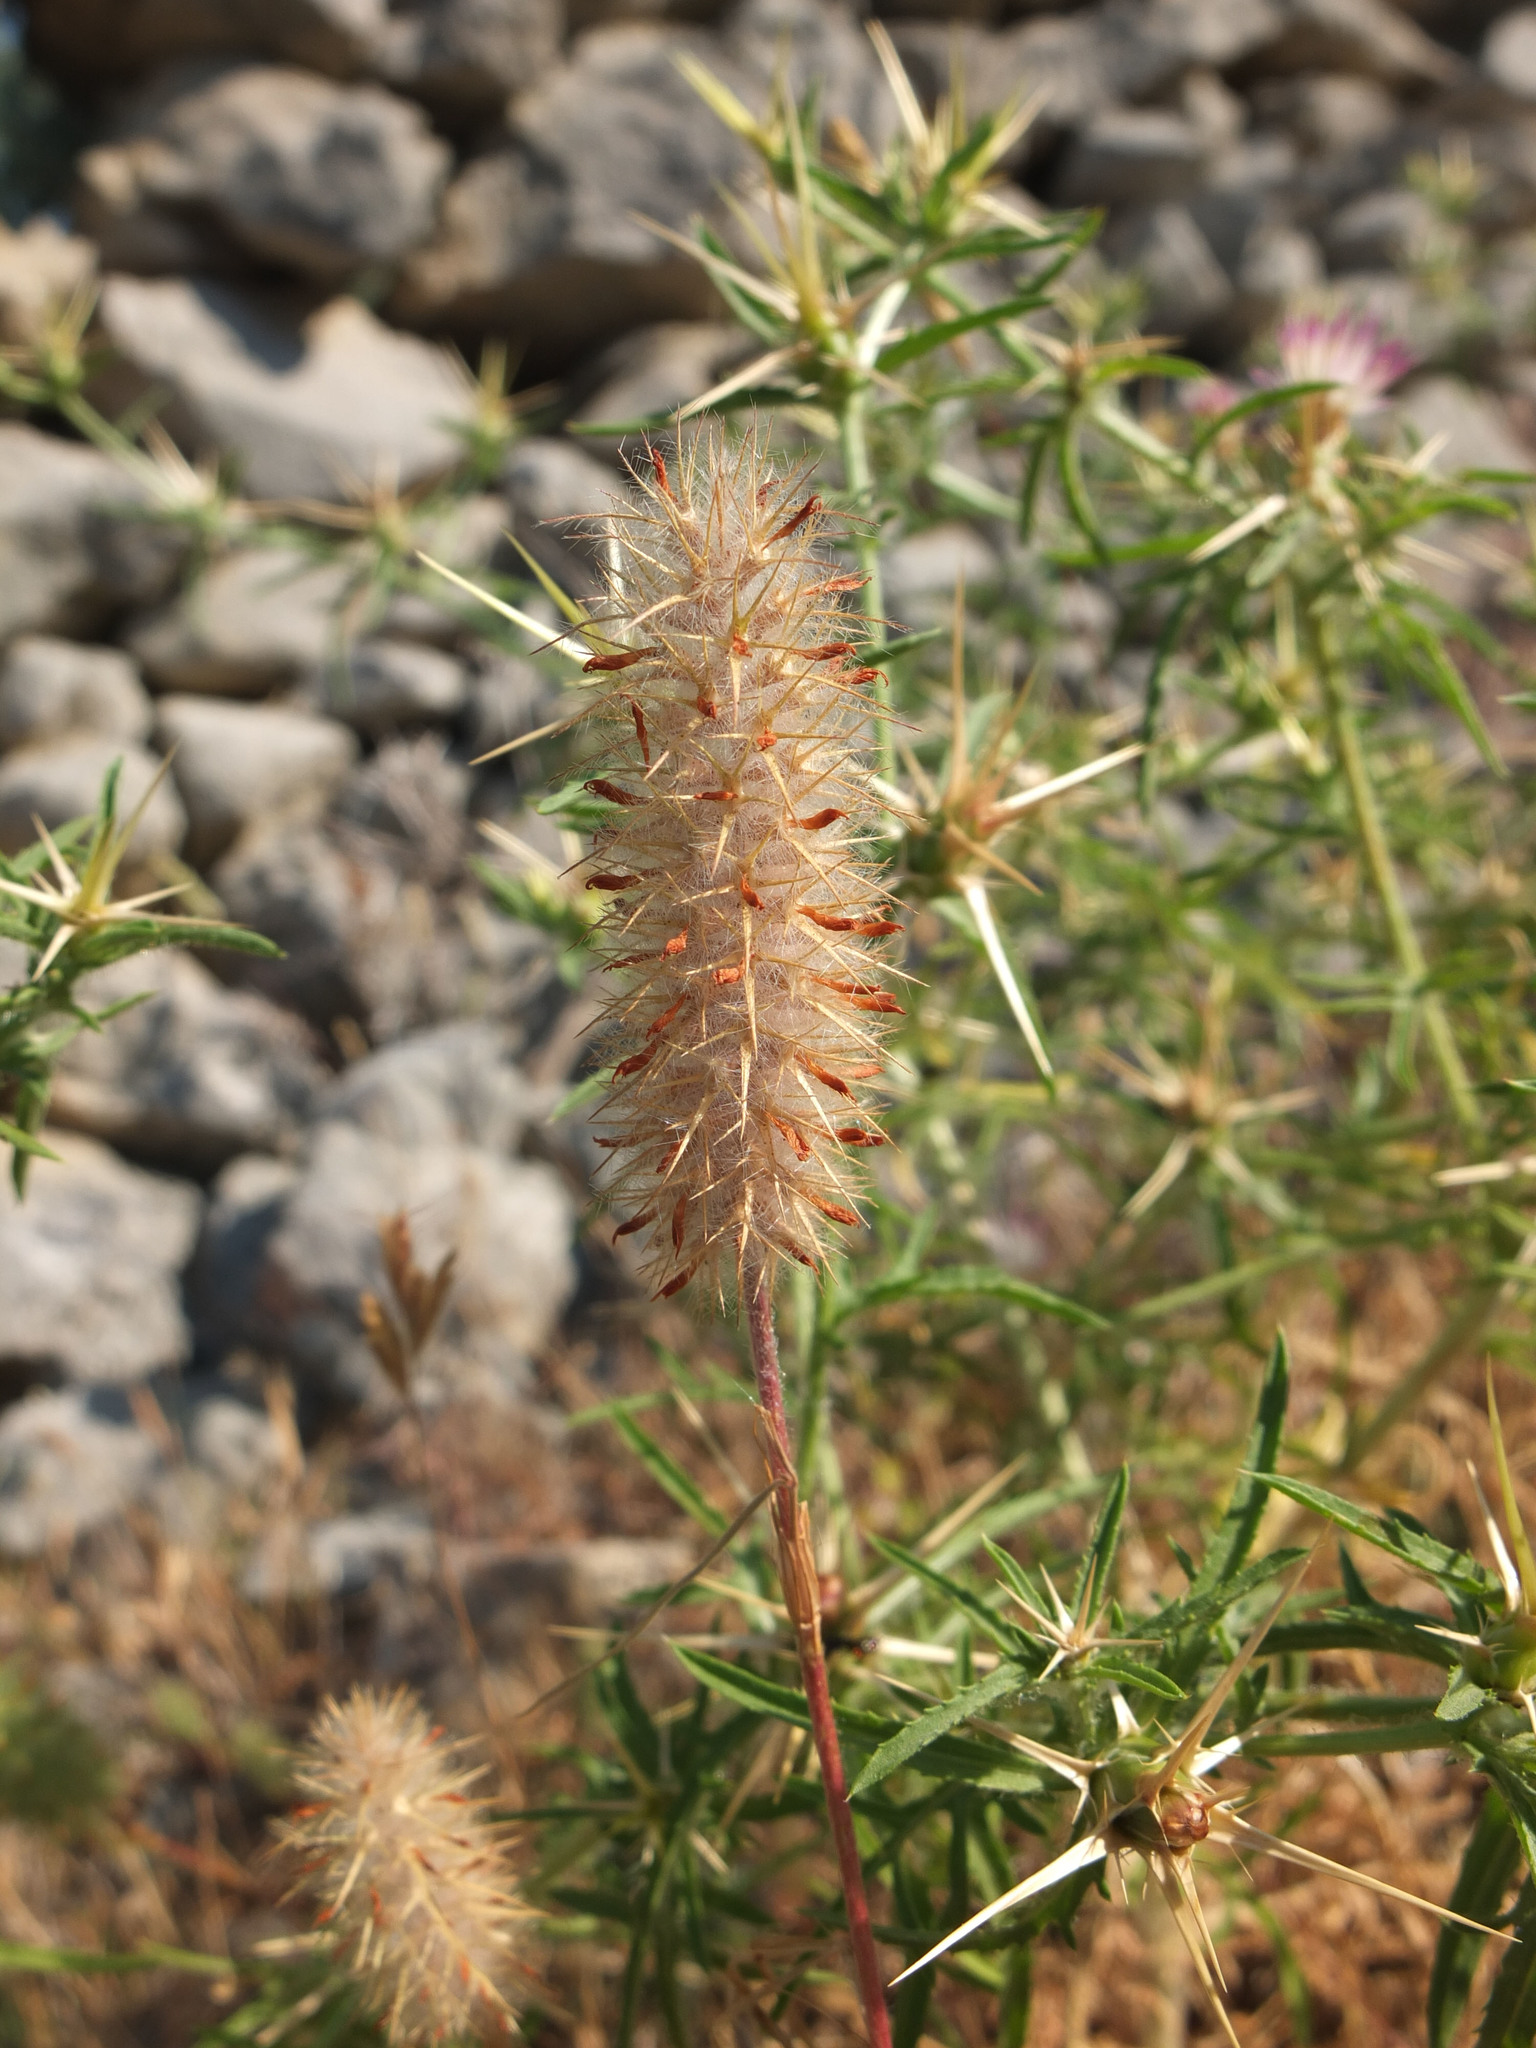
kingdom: Plantae
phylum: Tracheophyta
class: Magnoliopsida
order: Fabales
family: Fabaceae
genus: Trifolium
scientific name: Trifolium angustifolium
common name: Narrow clover
